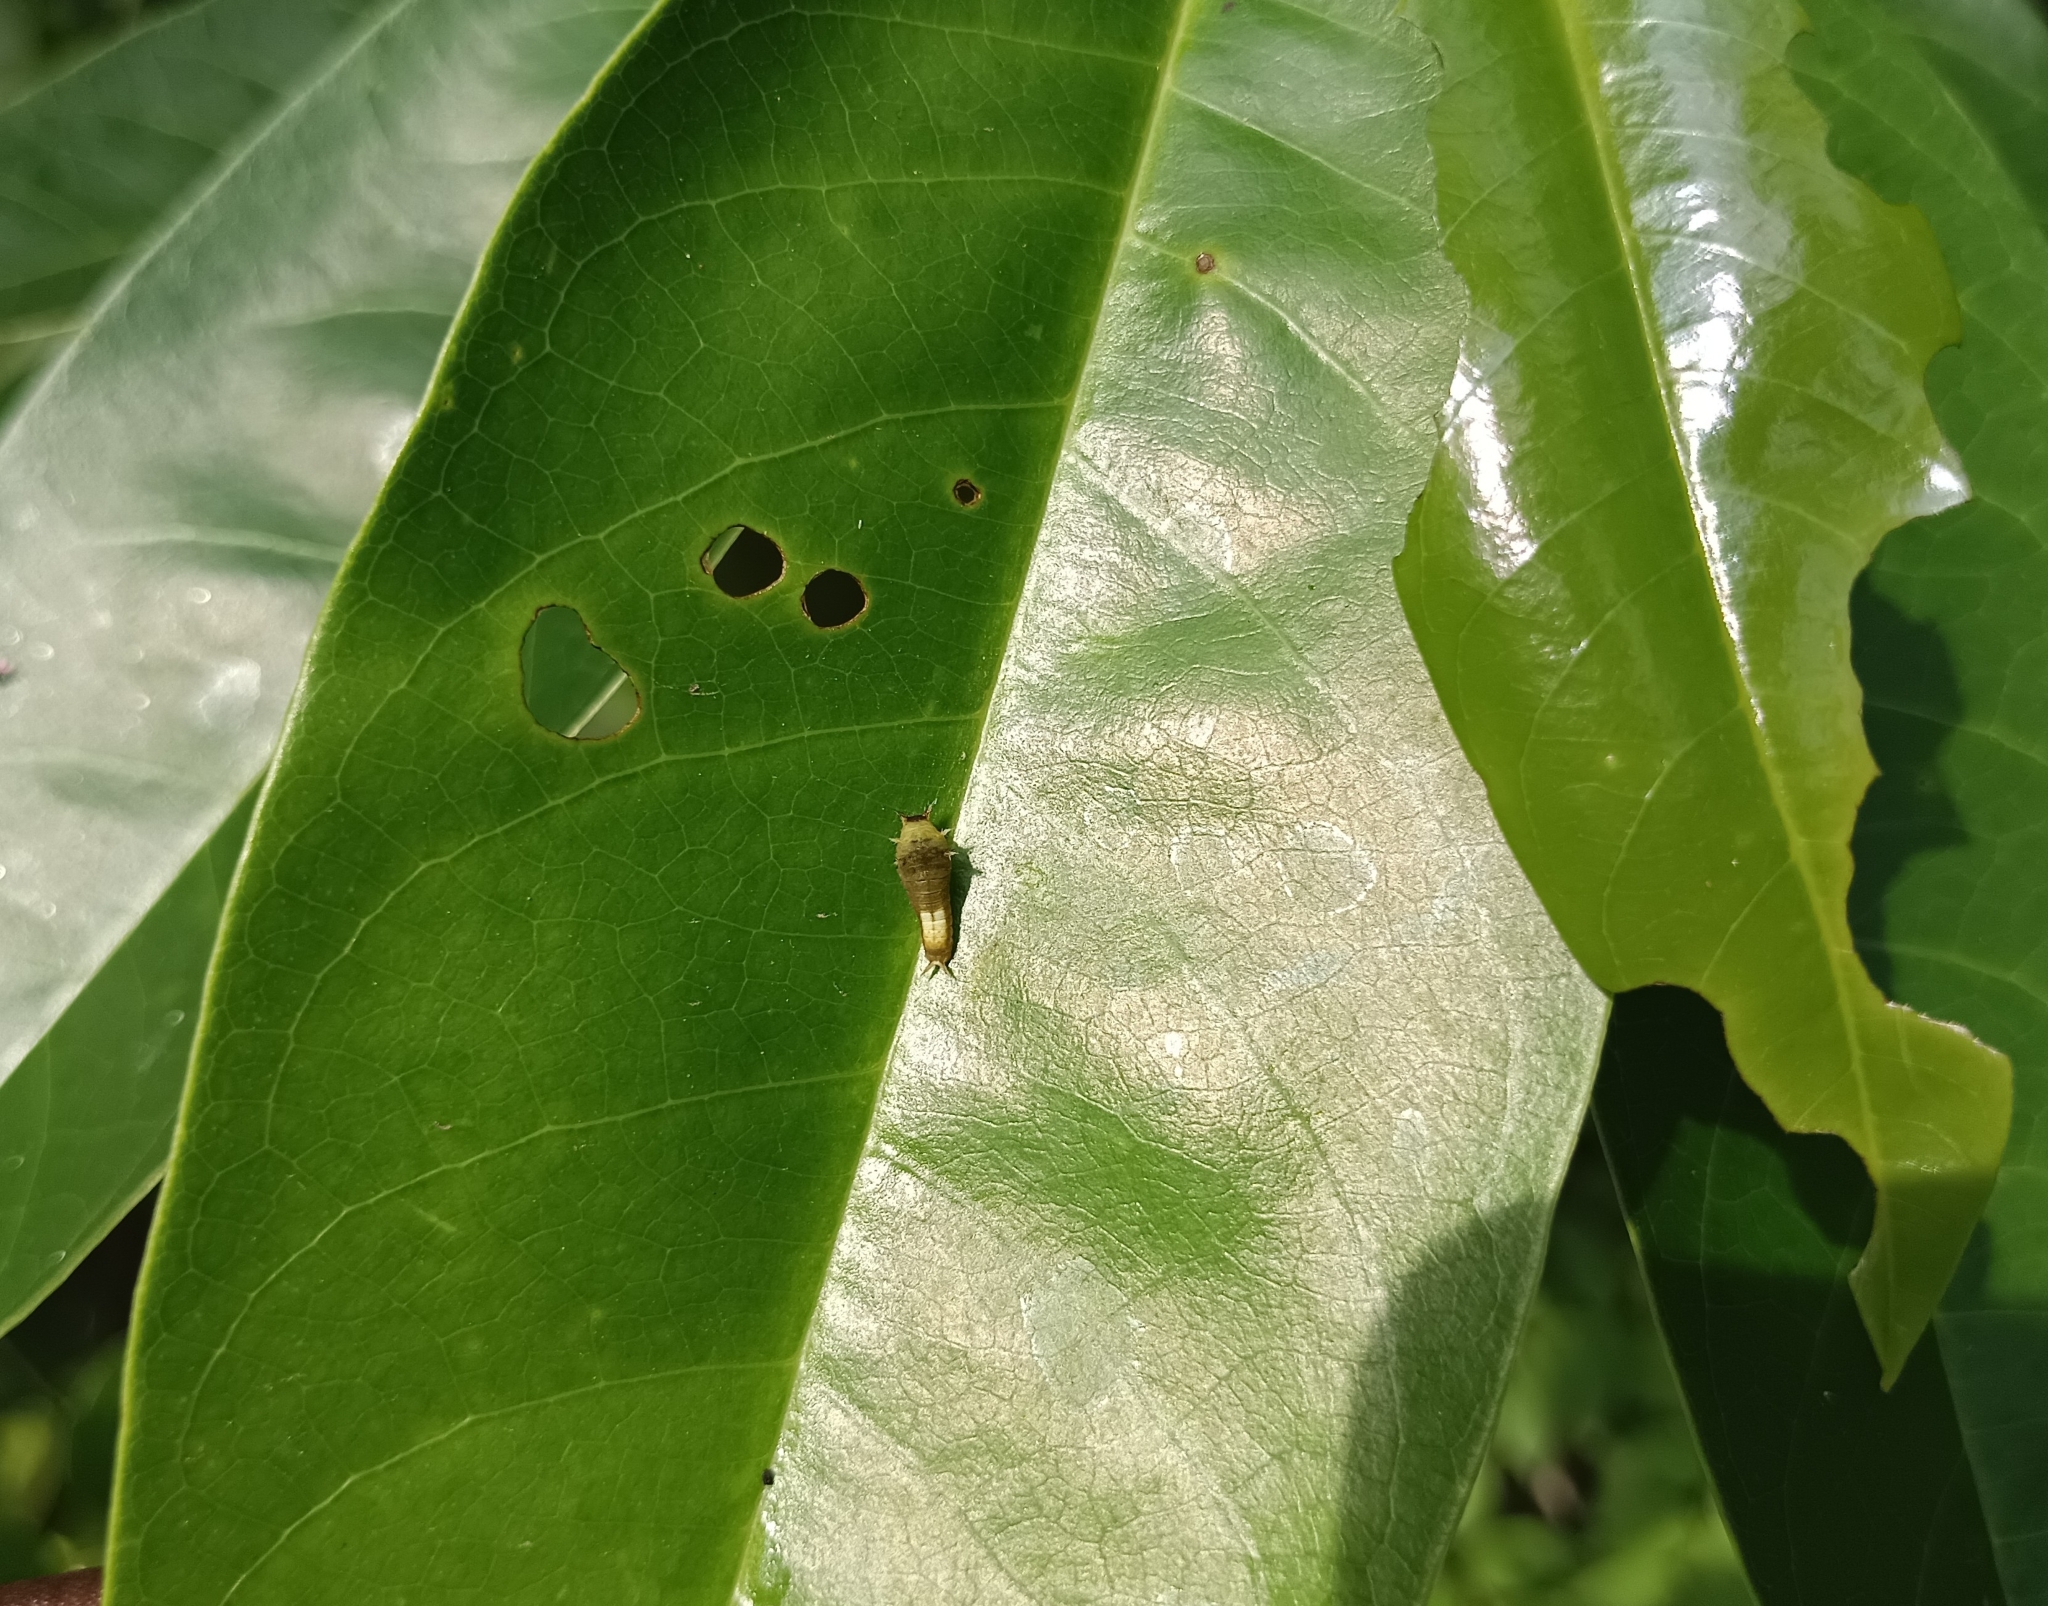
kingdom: Animalia
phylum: Arthropoda
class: Insecta
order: Lepidoptera
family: Papilionidae
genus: Graphium
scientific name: Graphium agamemnon
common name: Tailed jay
